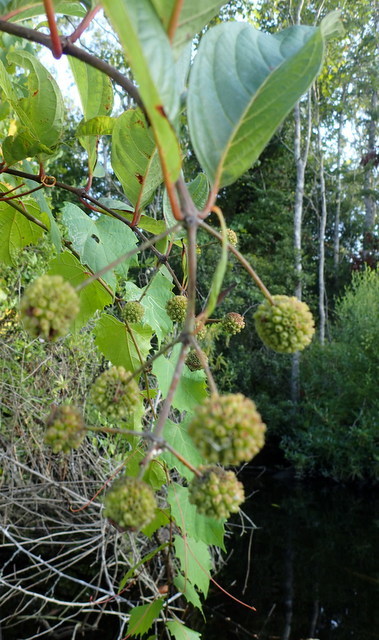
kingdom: Plantae
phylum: Tracheophyta
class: Magnoliopsida
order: Gentianales
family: Rubiaceae
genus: Cephalanthus
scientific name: Cephalanthus occidentalis
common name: Button-willow
